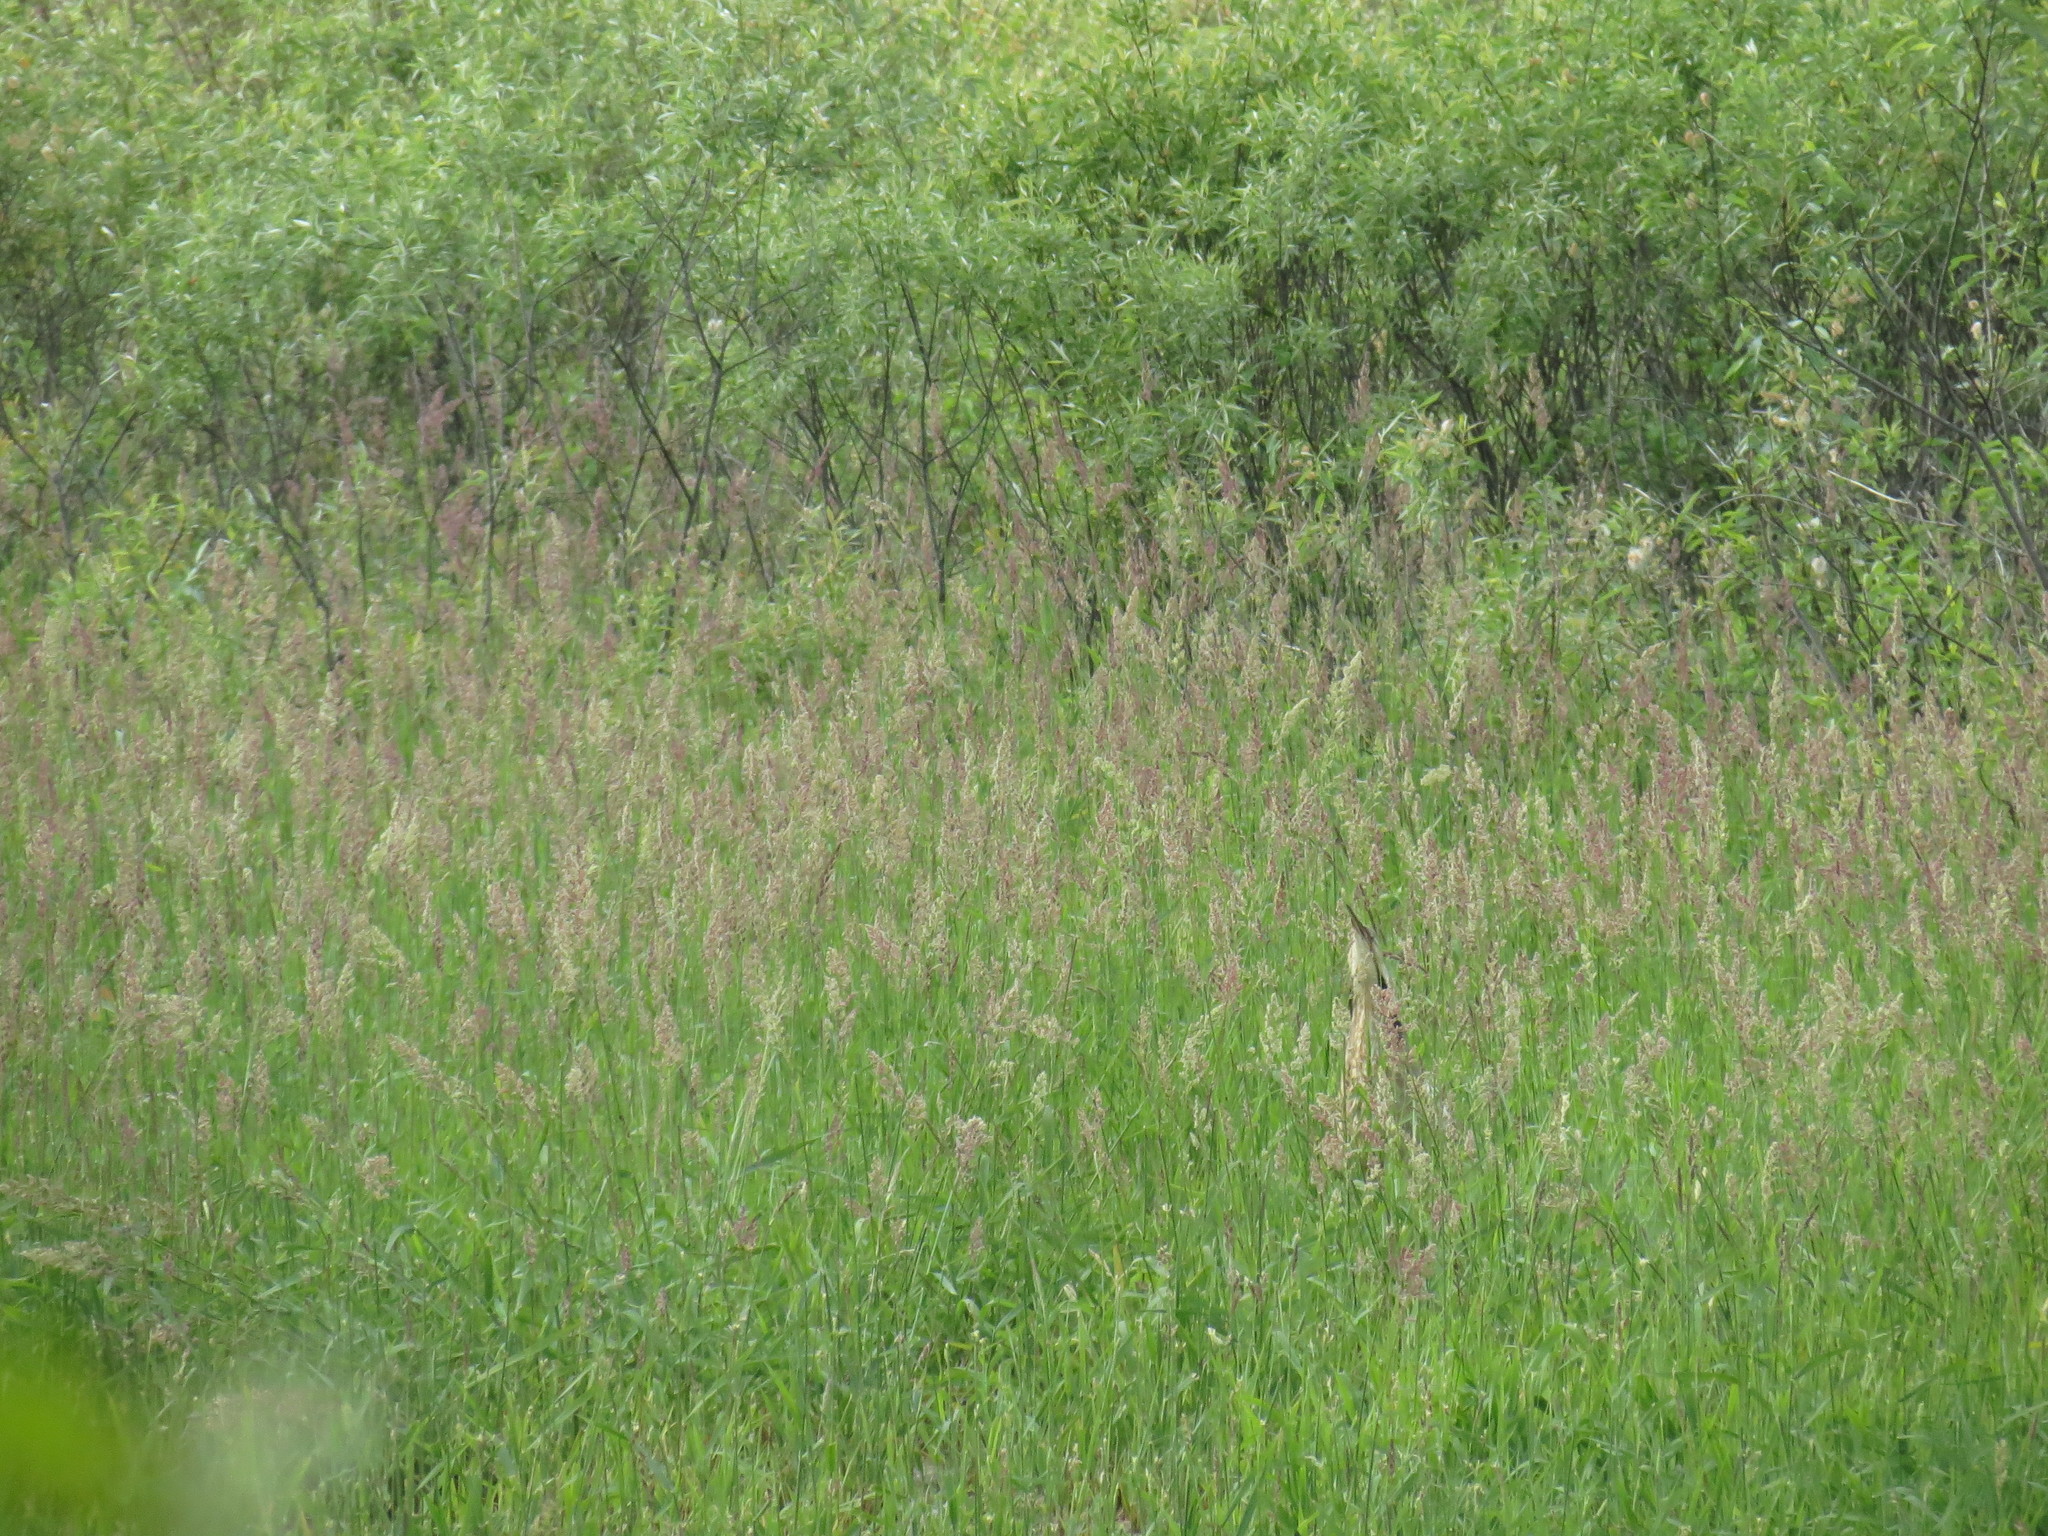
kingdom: Animalia
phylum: Chordata
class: Aves
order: Pelecaniformes
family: Ardeidae
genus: Botaurus
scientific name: Botaurus lentiginosus
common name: American bittern
